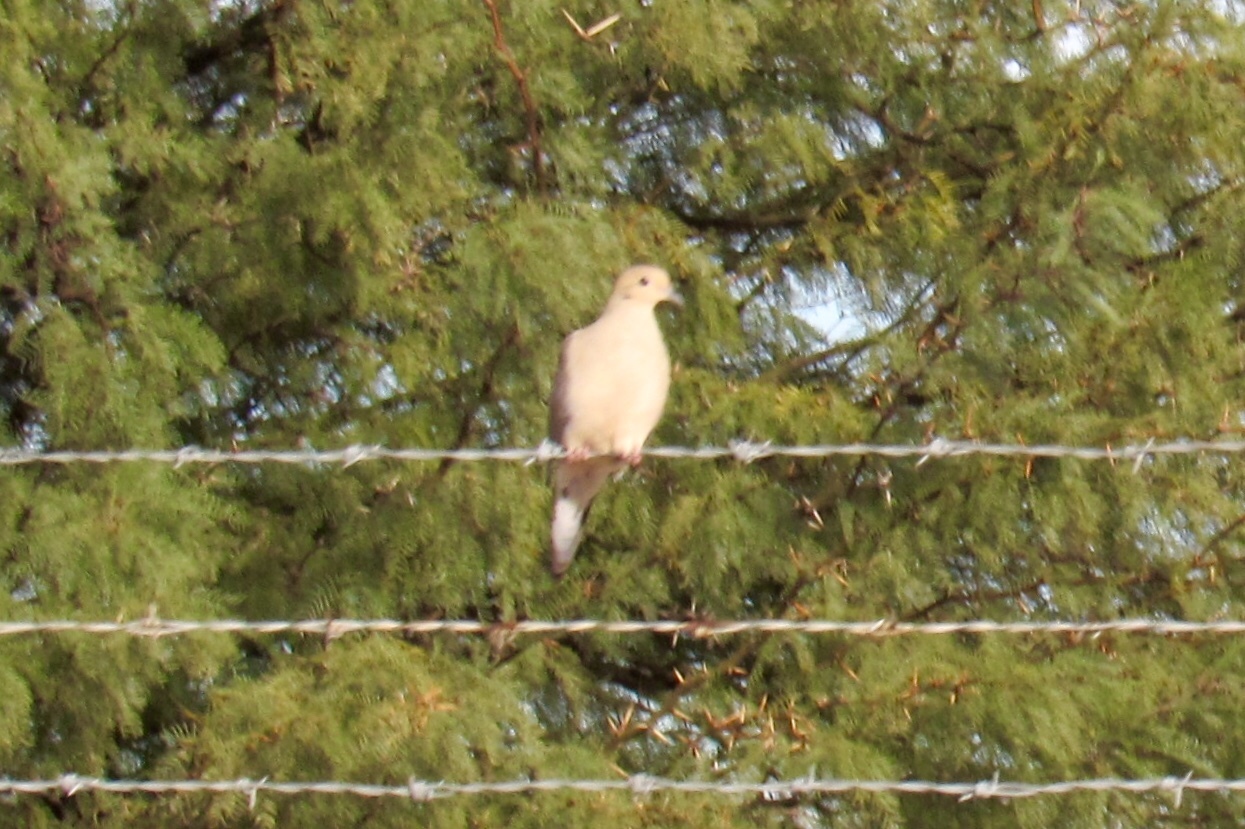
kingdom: Animalia
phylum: Chordata
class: Aves
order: Columbiformes
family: Columbidae
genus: Zenaida
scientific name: Zenaida macroura
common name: Mourning dove
